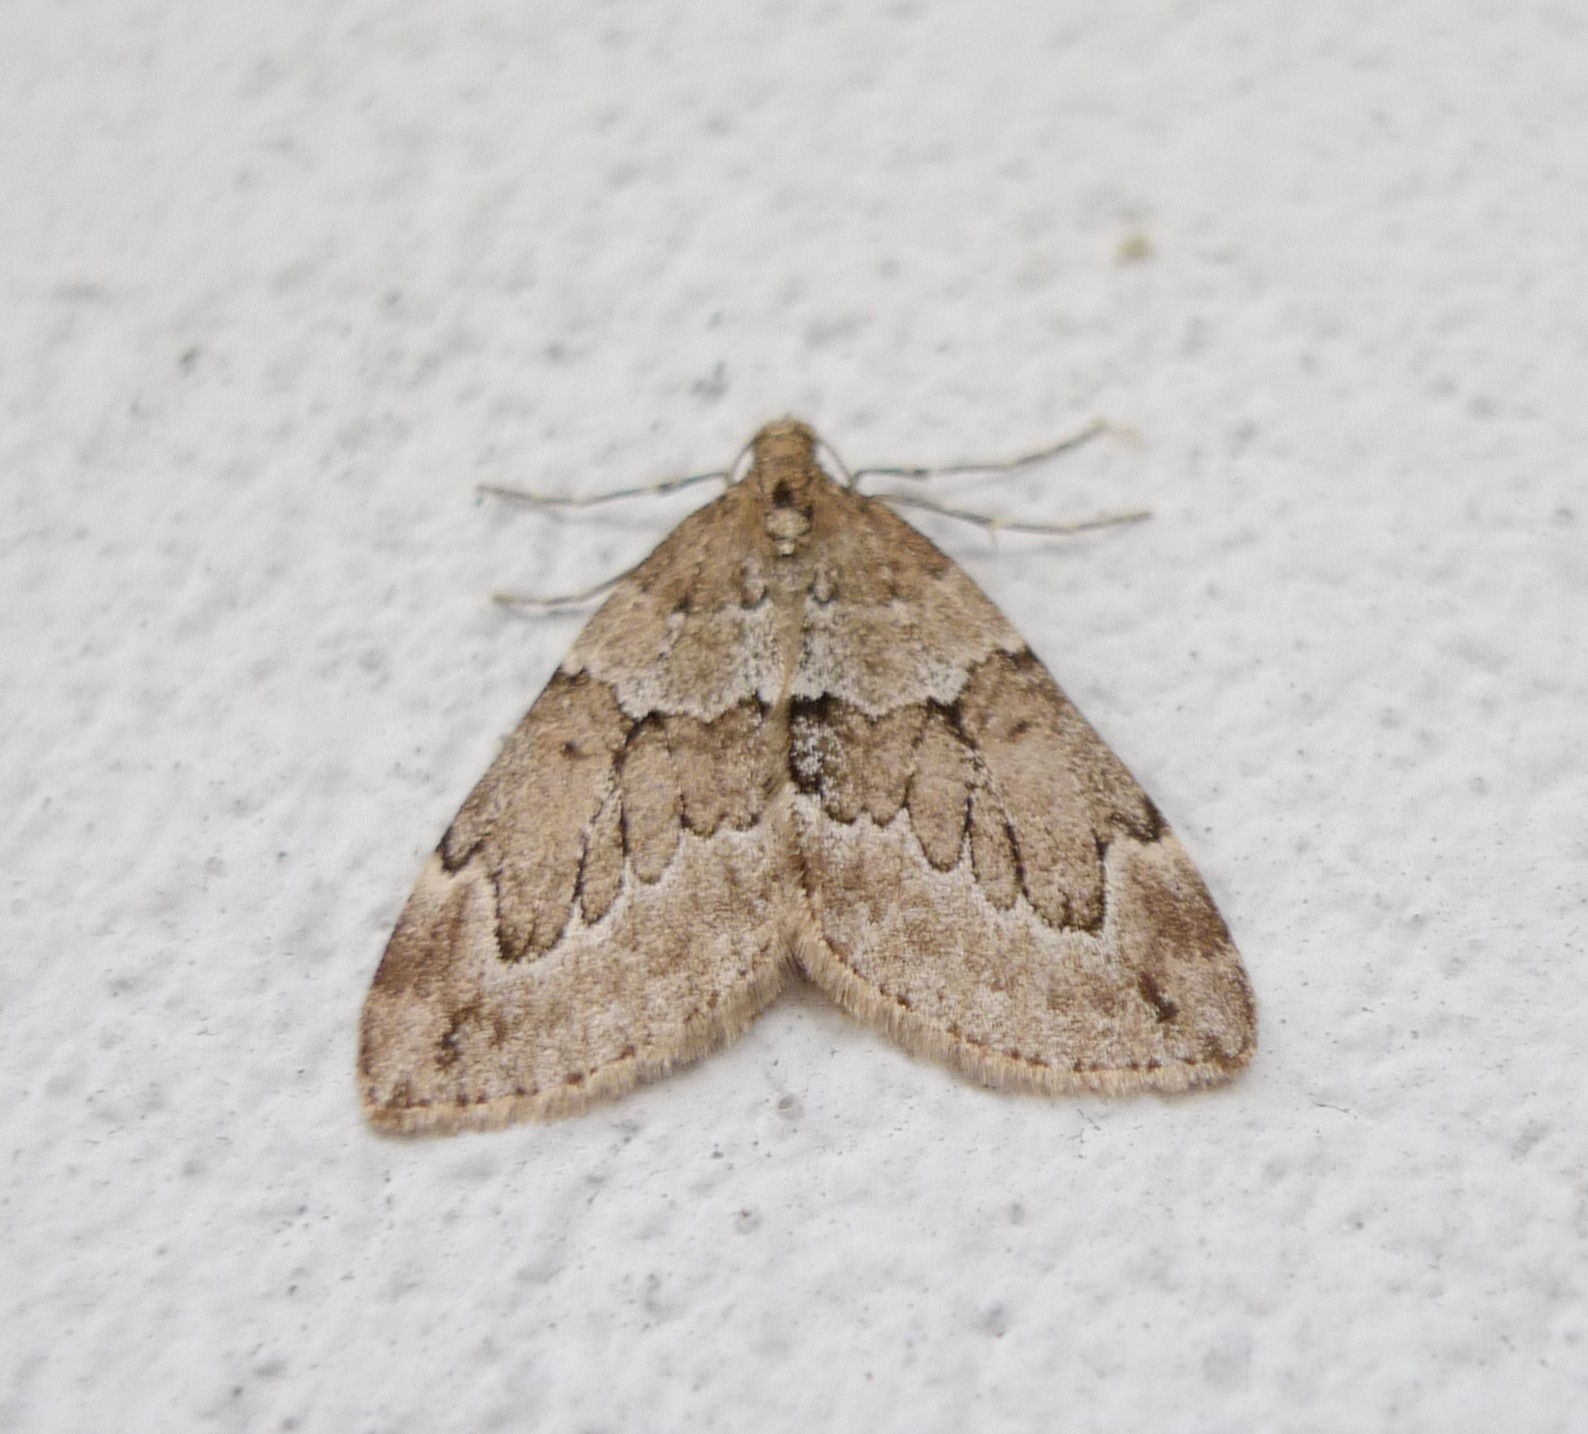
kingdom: Animalia
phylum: Arthropoda
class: Insecta
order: Lepidoptera
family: Geometridae
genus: Thera
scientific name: Thera juniperata
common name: Juniper carpet
